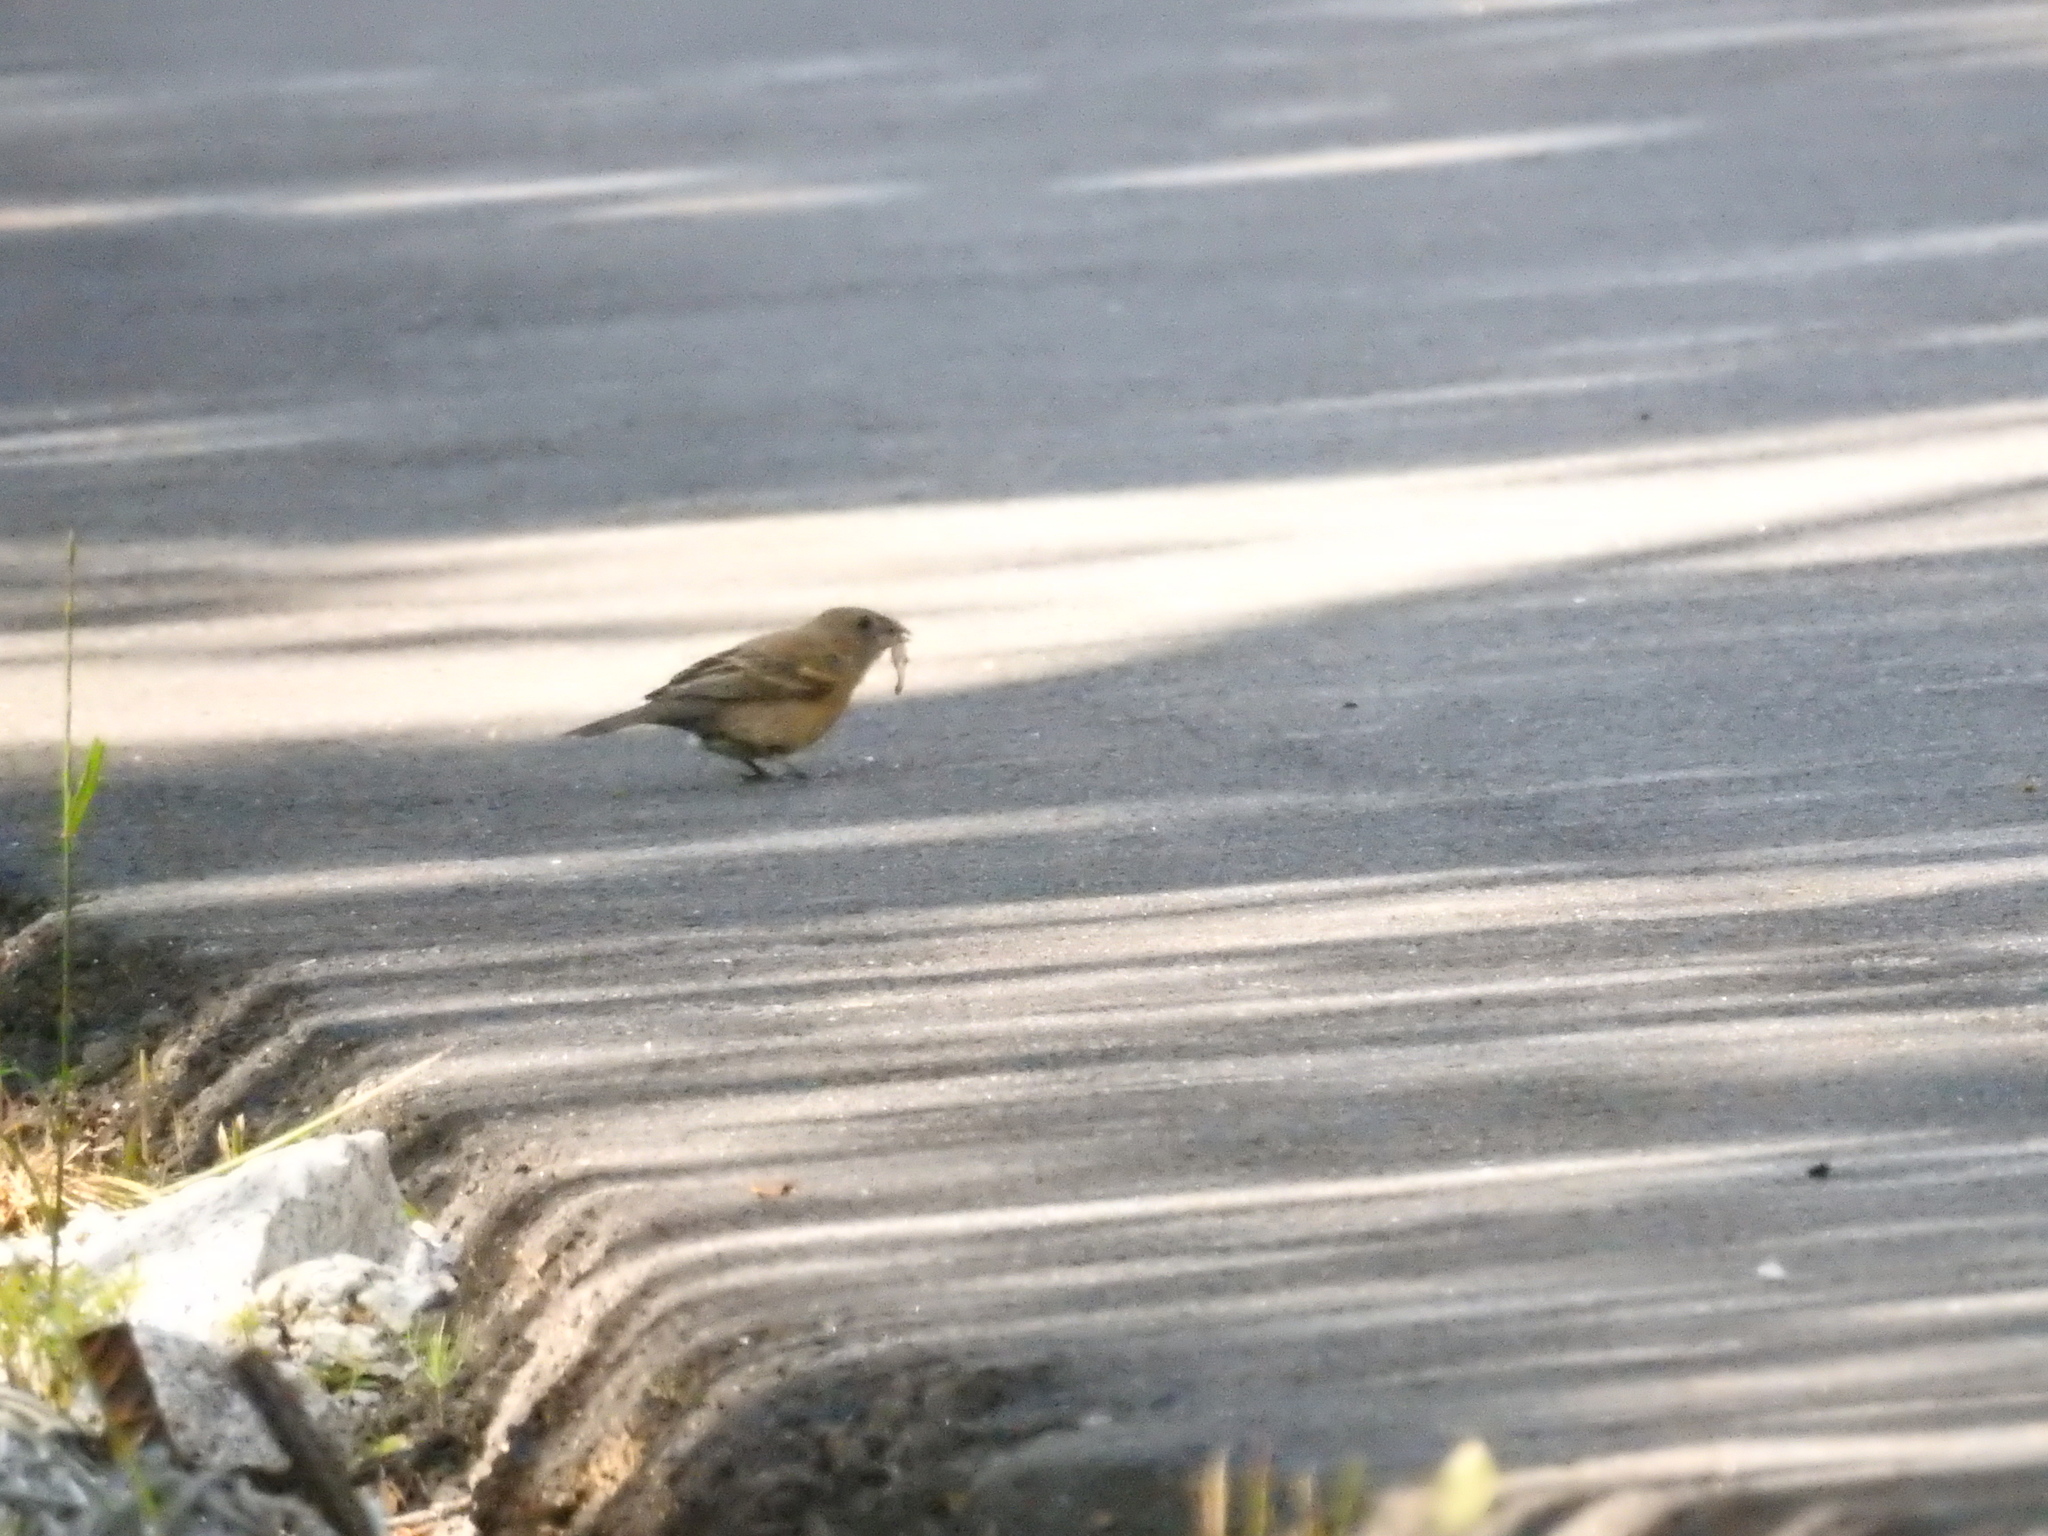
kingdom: Animalia
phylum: Chordata
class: Aves
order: Passeriformes
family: Cardinalidae
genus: Passerina
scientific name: Passerina caerulea
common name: Blue grosbeak
